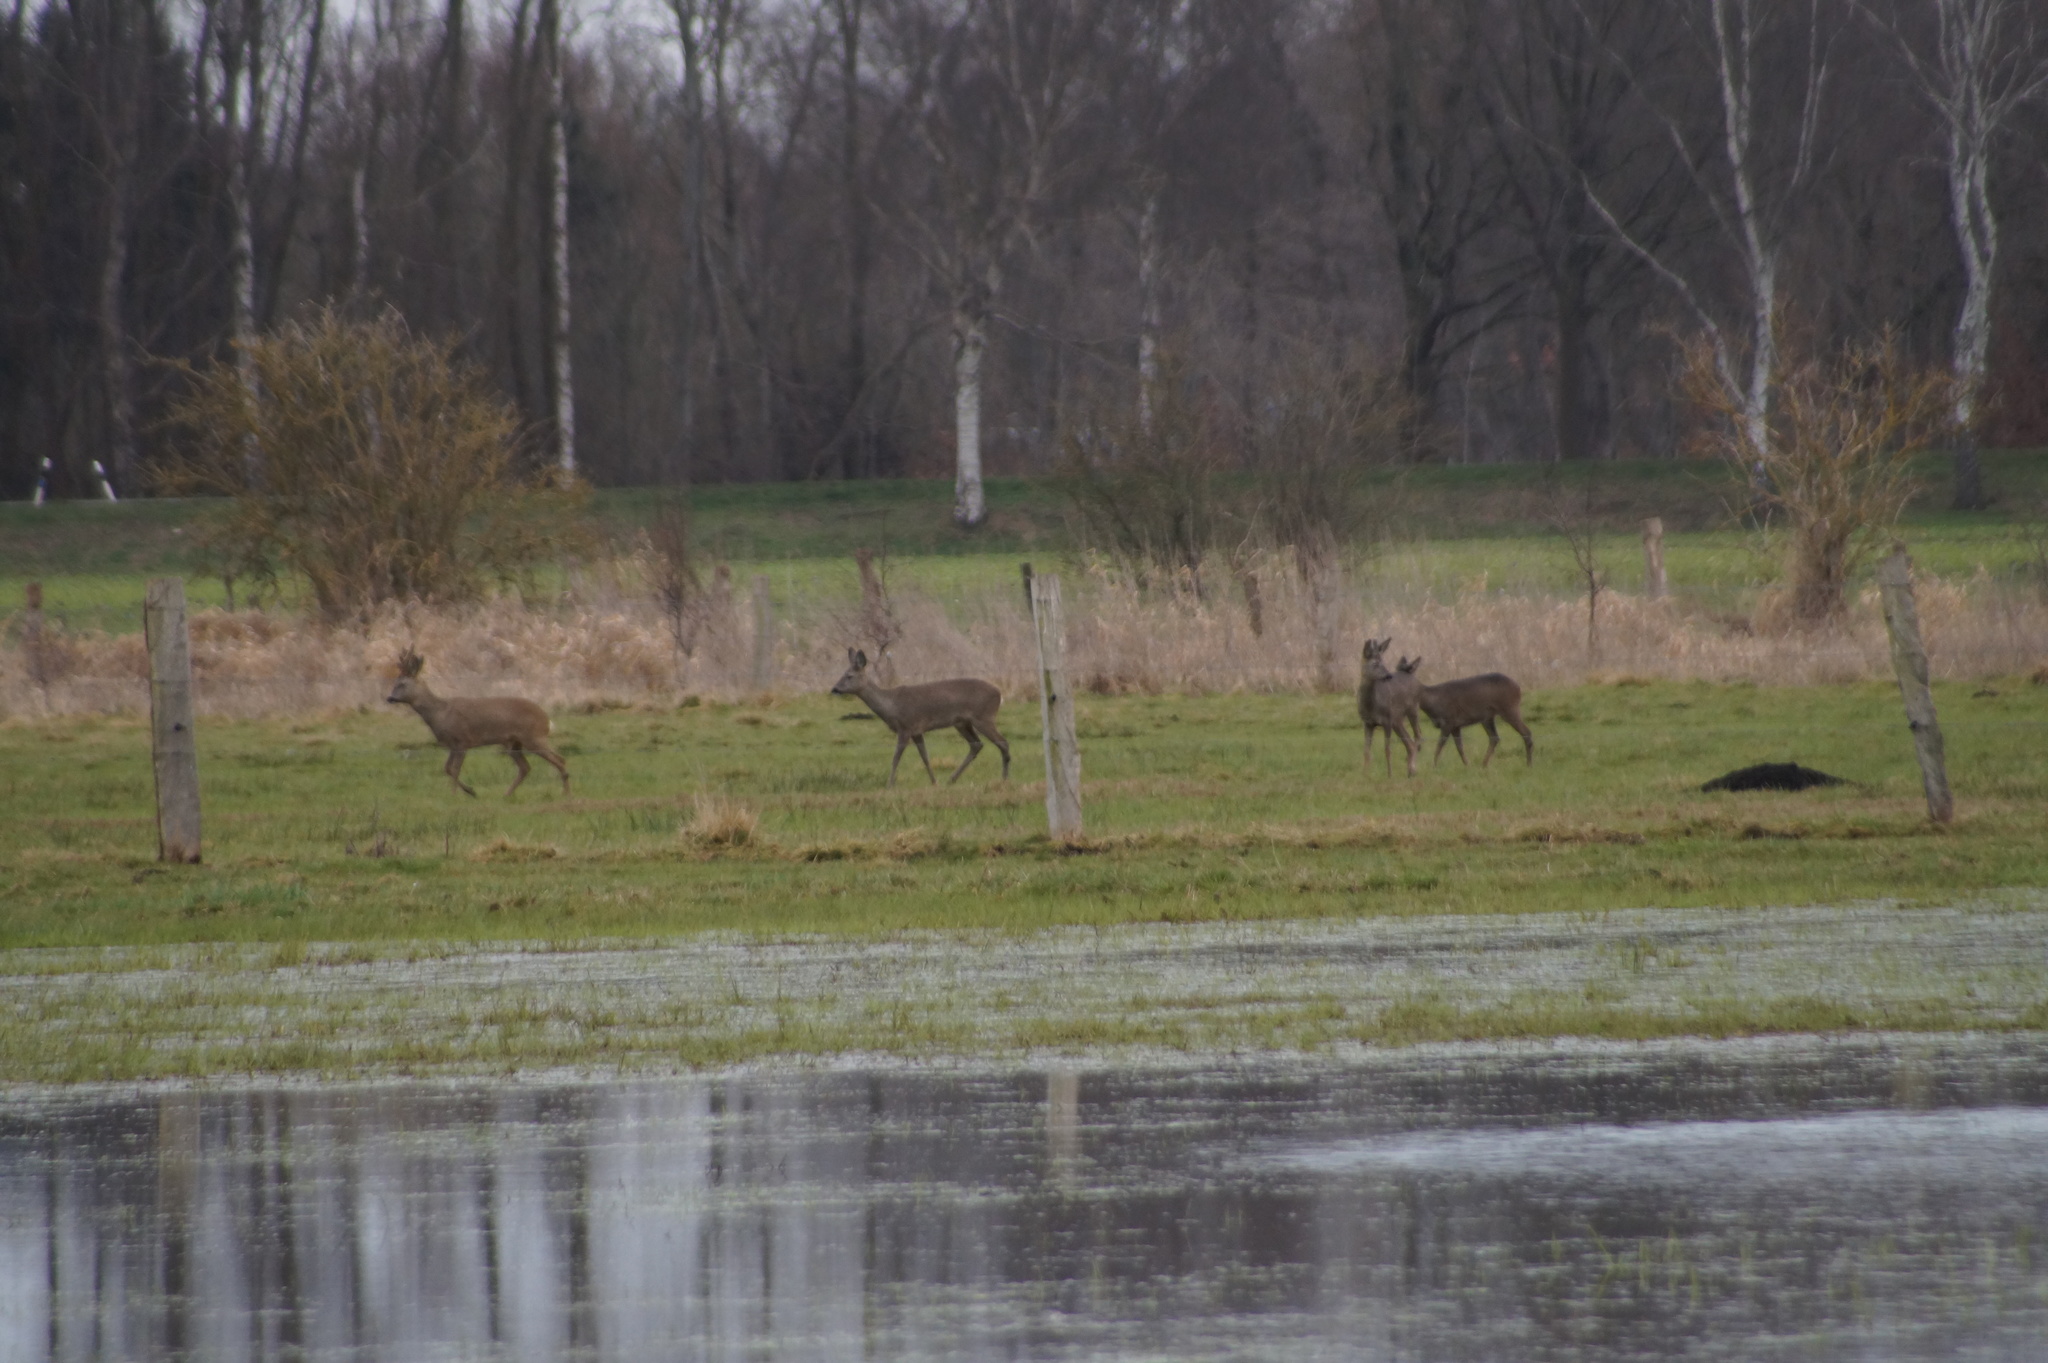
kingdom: Animalia
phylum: Chordata
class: Mammalia
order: Artiodactyla
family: Cervidae
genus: Capreolus
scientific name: Capreolus capreolus
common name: Western roe deer
